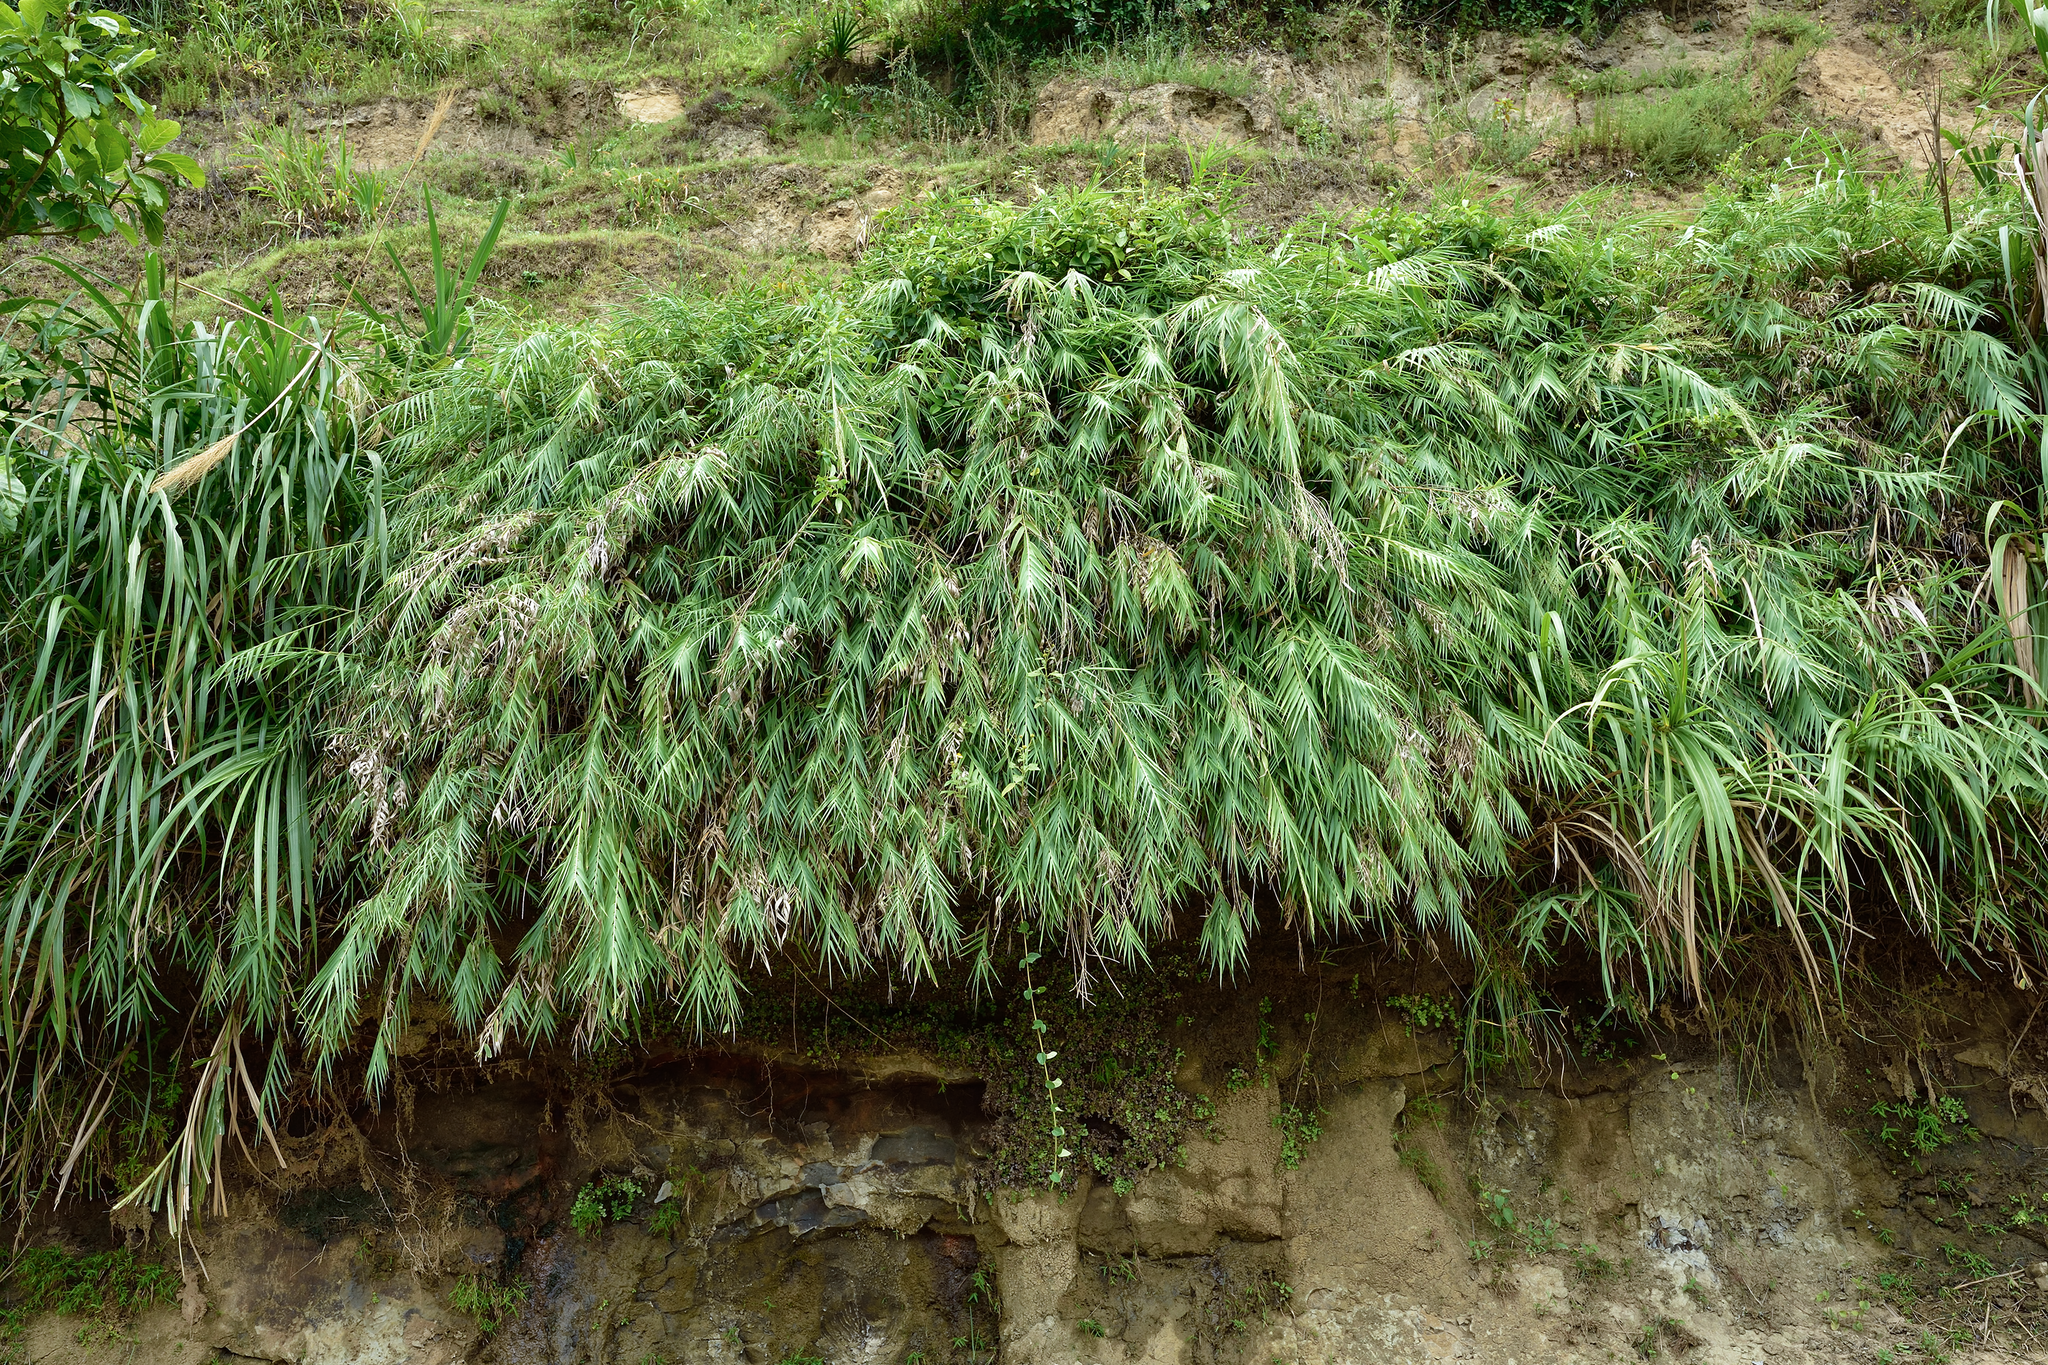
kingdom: Plantae
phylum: Tracheophyta
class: Liliopsida
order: Poales
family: Poaceae
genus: Arundo
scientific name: Arundo formosana
